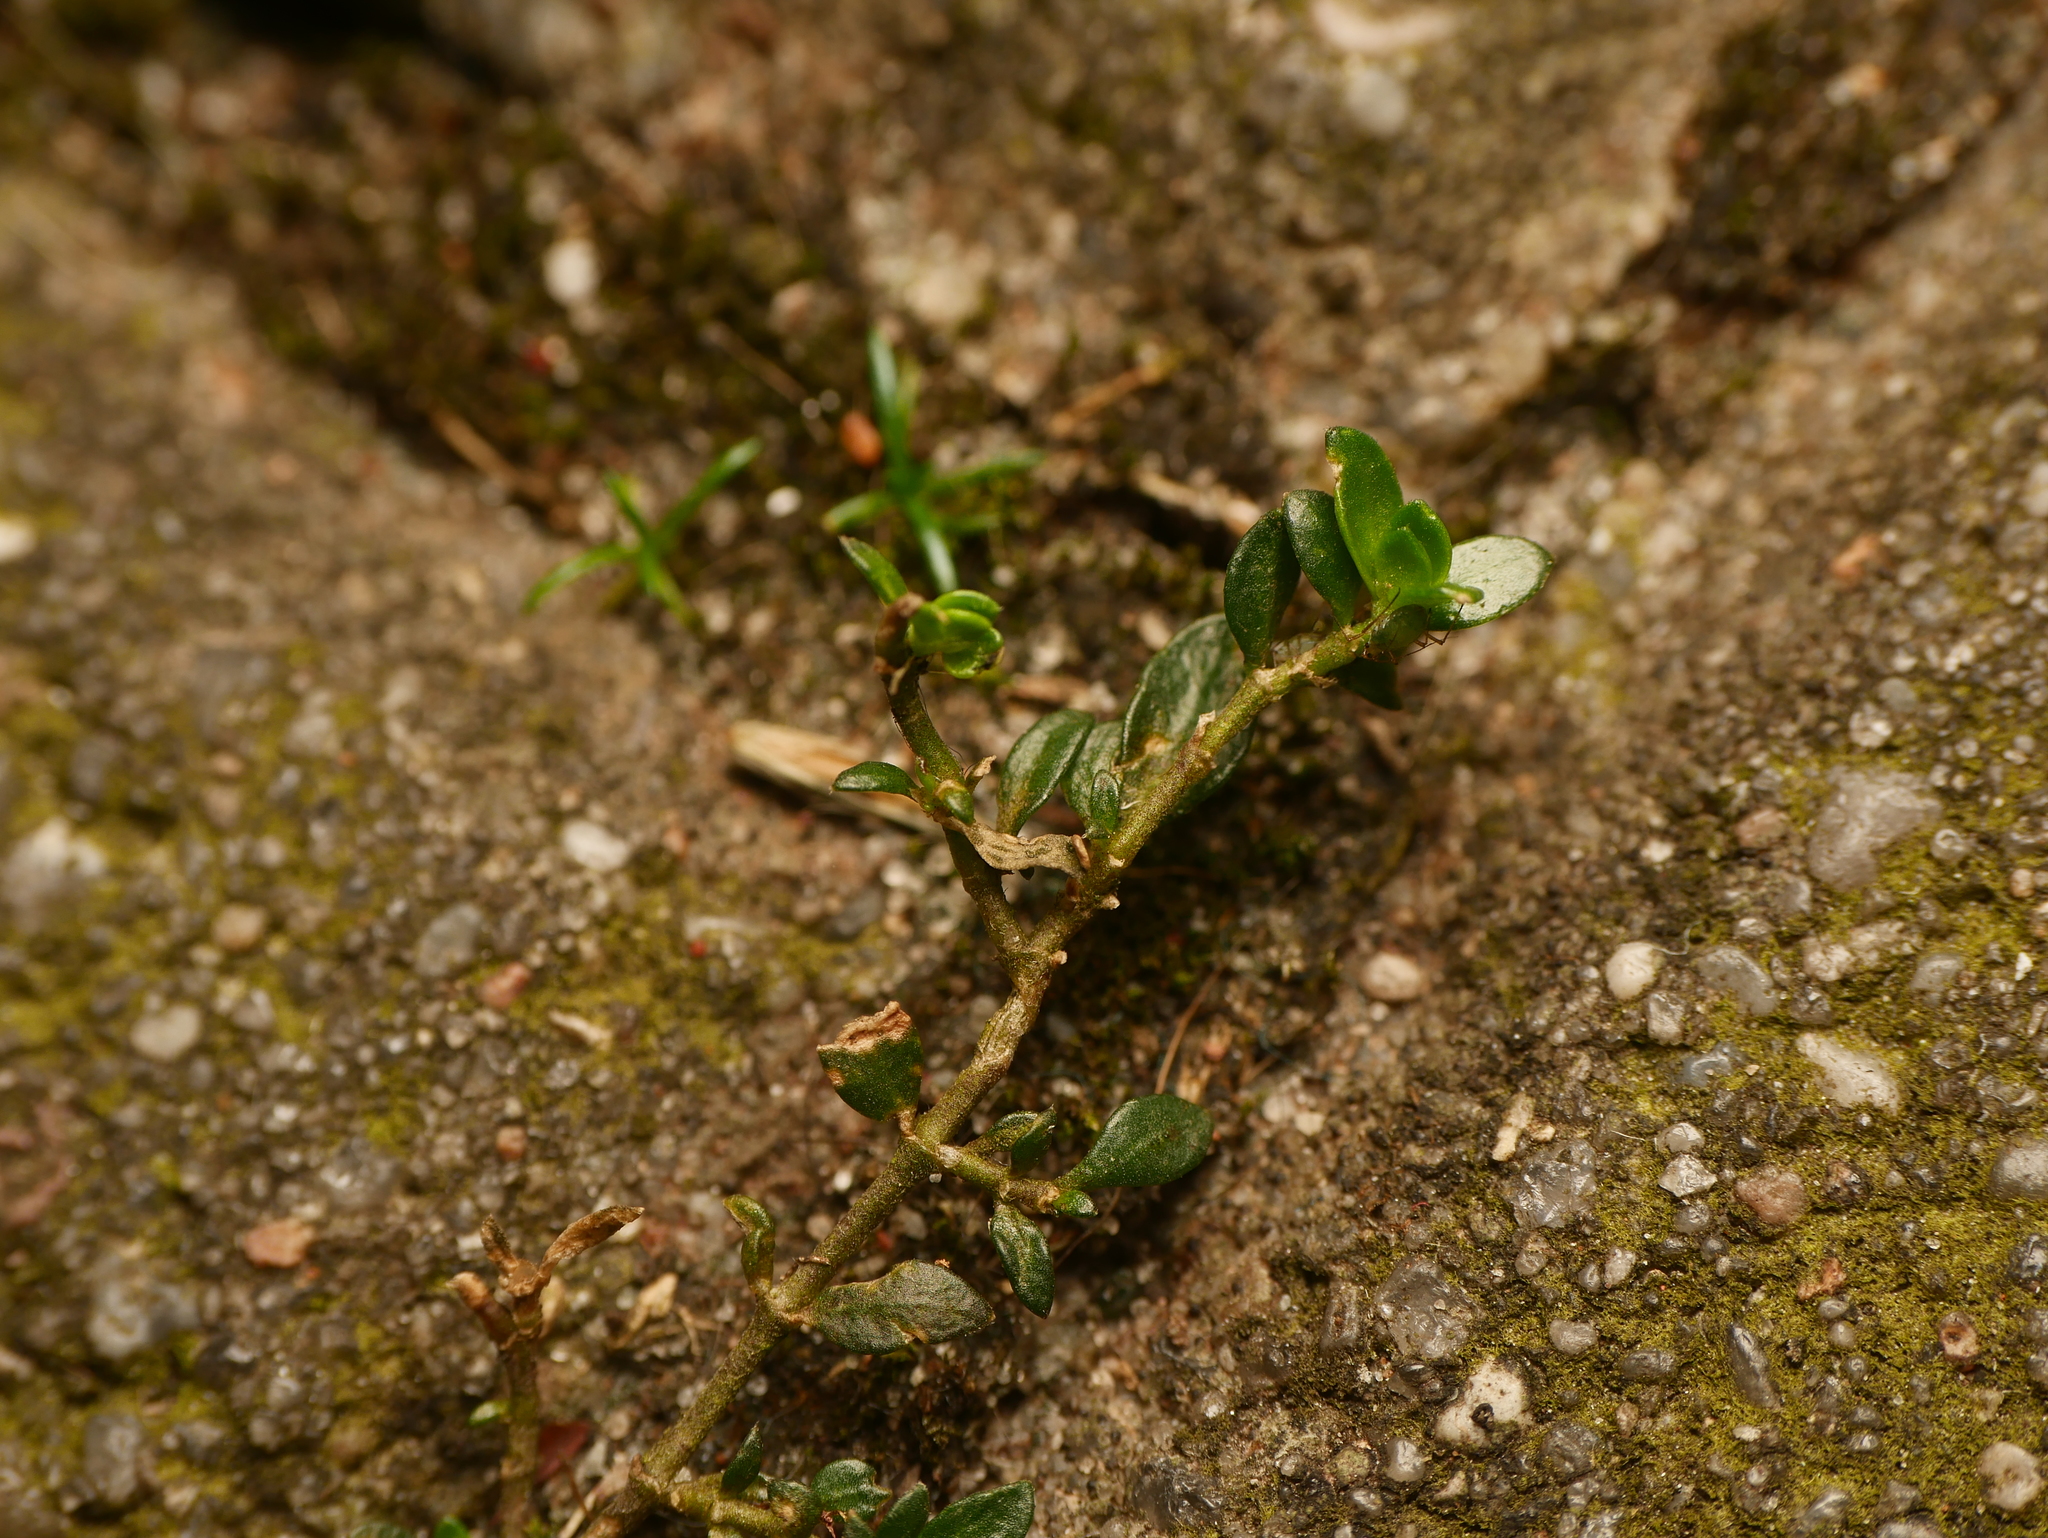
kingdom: Plantae
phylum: Tracheophyta
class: Magnoliopsida
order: Caryophyllales
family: Caryophyllaceae
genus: Herniaria
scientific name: Herniaria glabra
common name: Smooth rupturewort
